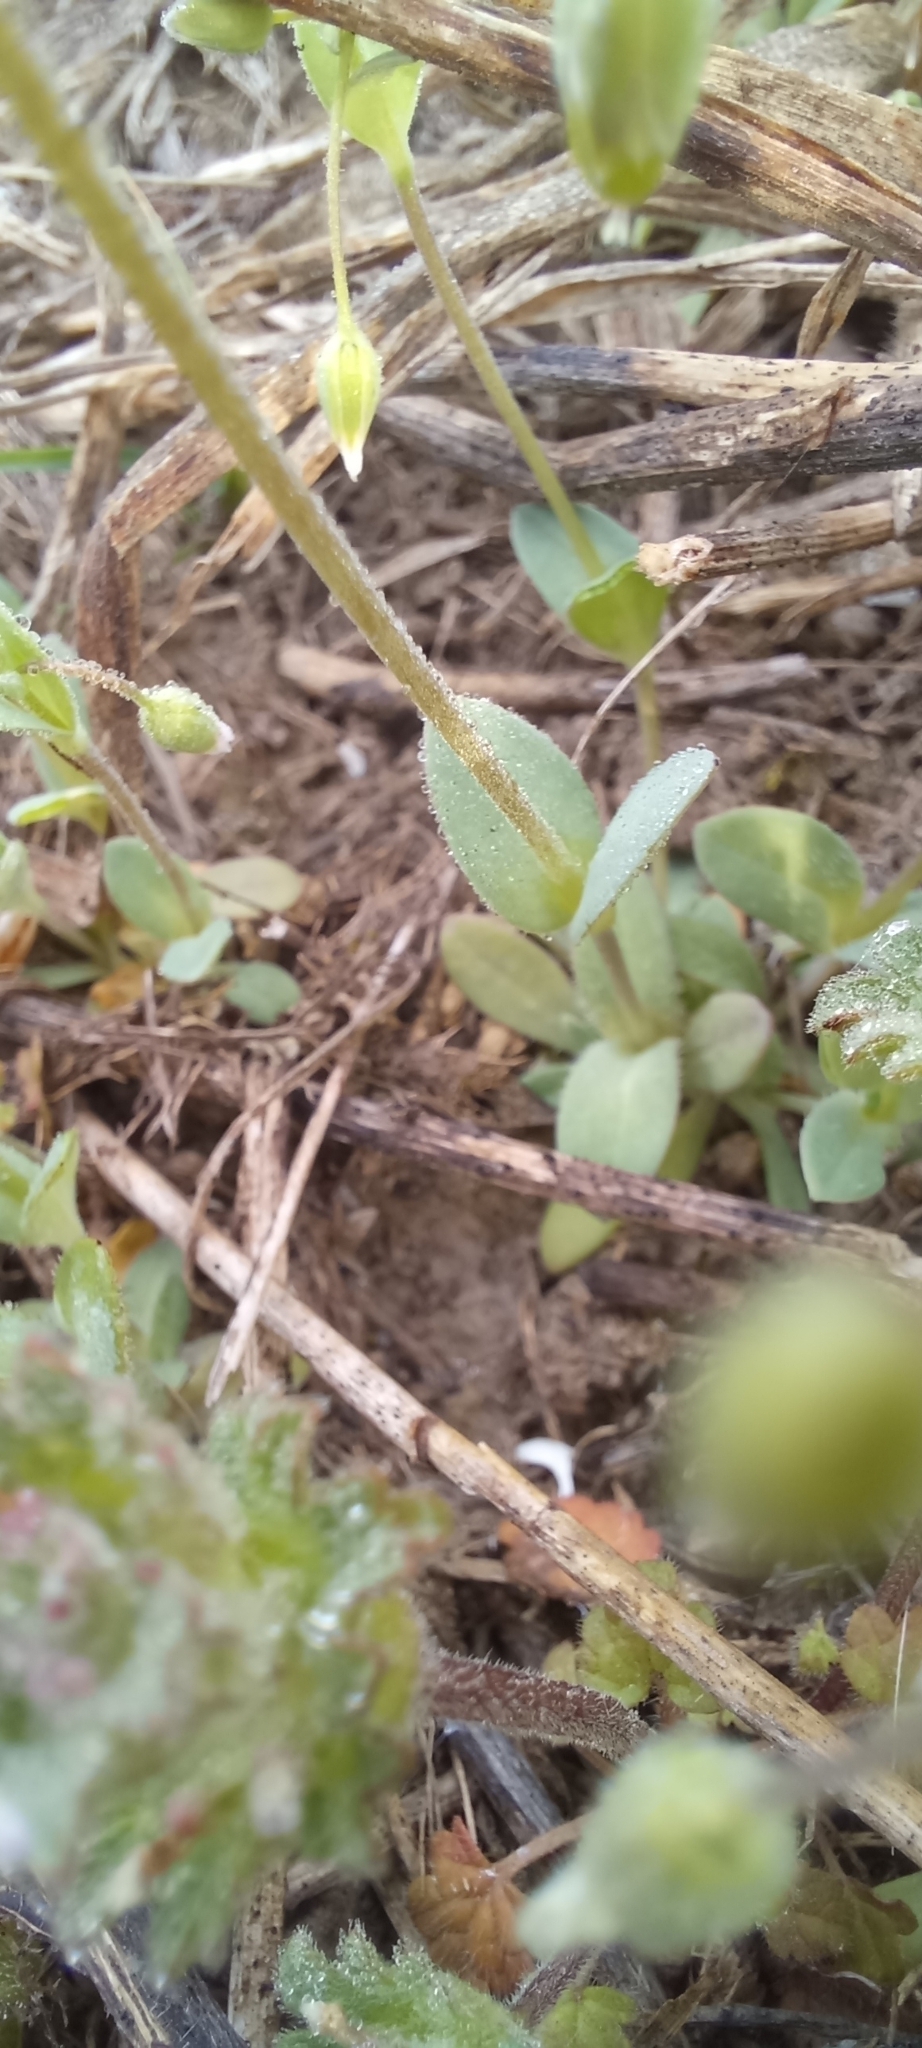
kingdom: Plantae
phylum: Tracheophyta
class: Magnoliopsida
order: Caryophyllales
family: Caryophyllaceae
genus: Holosteum
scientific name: Holosteum umbellatum
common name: Jagged chickweed
